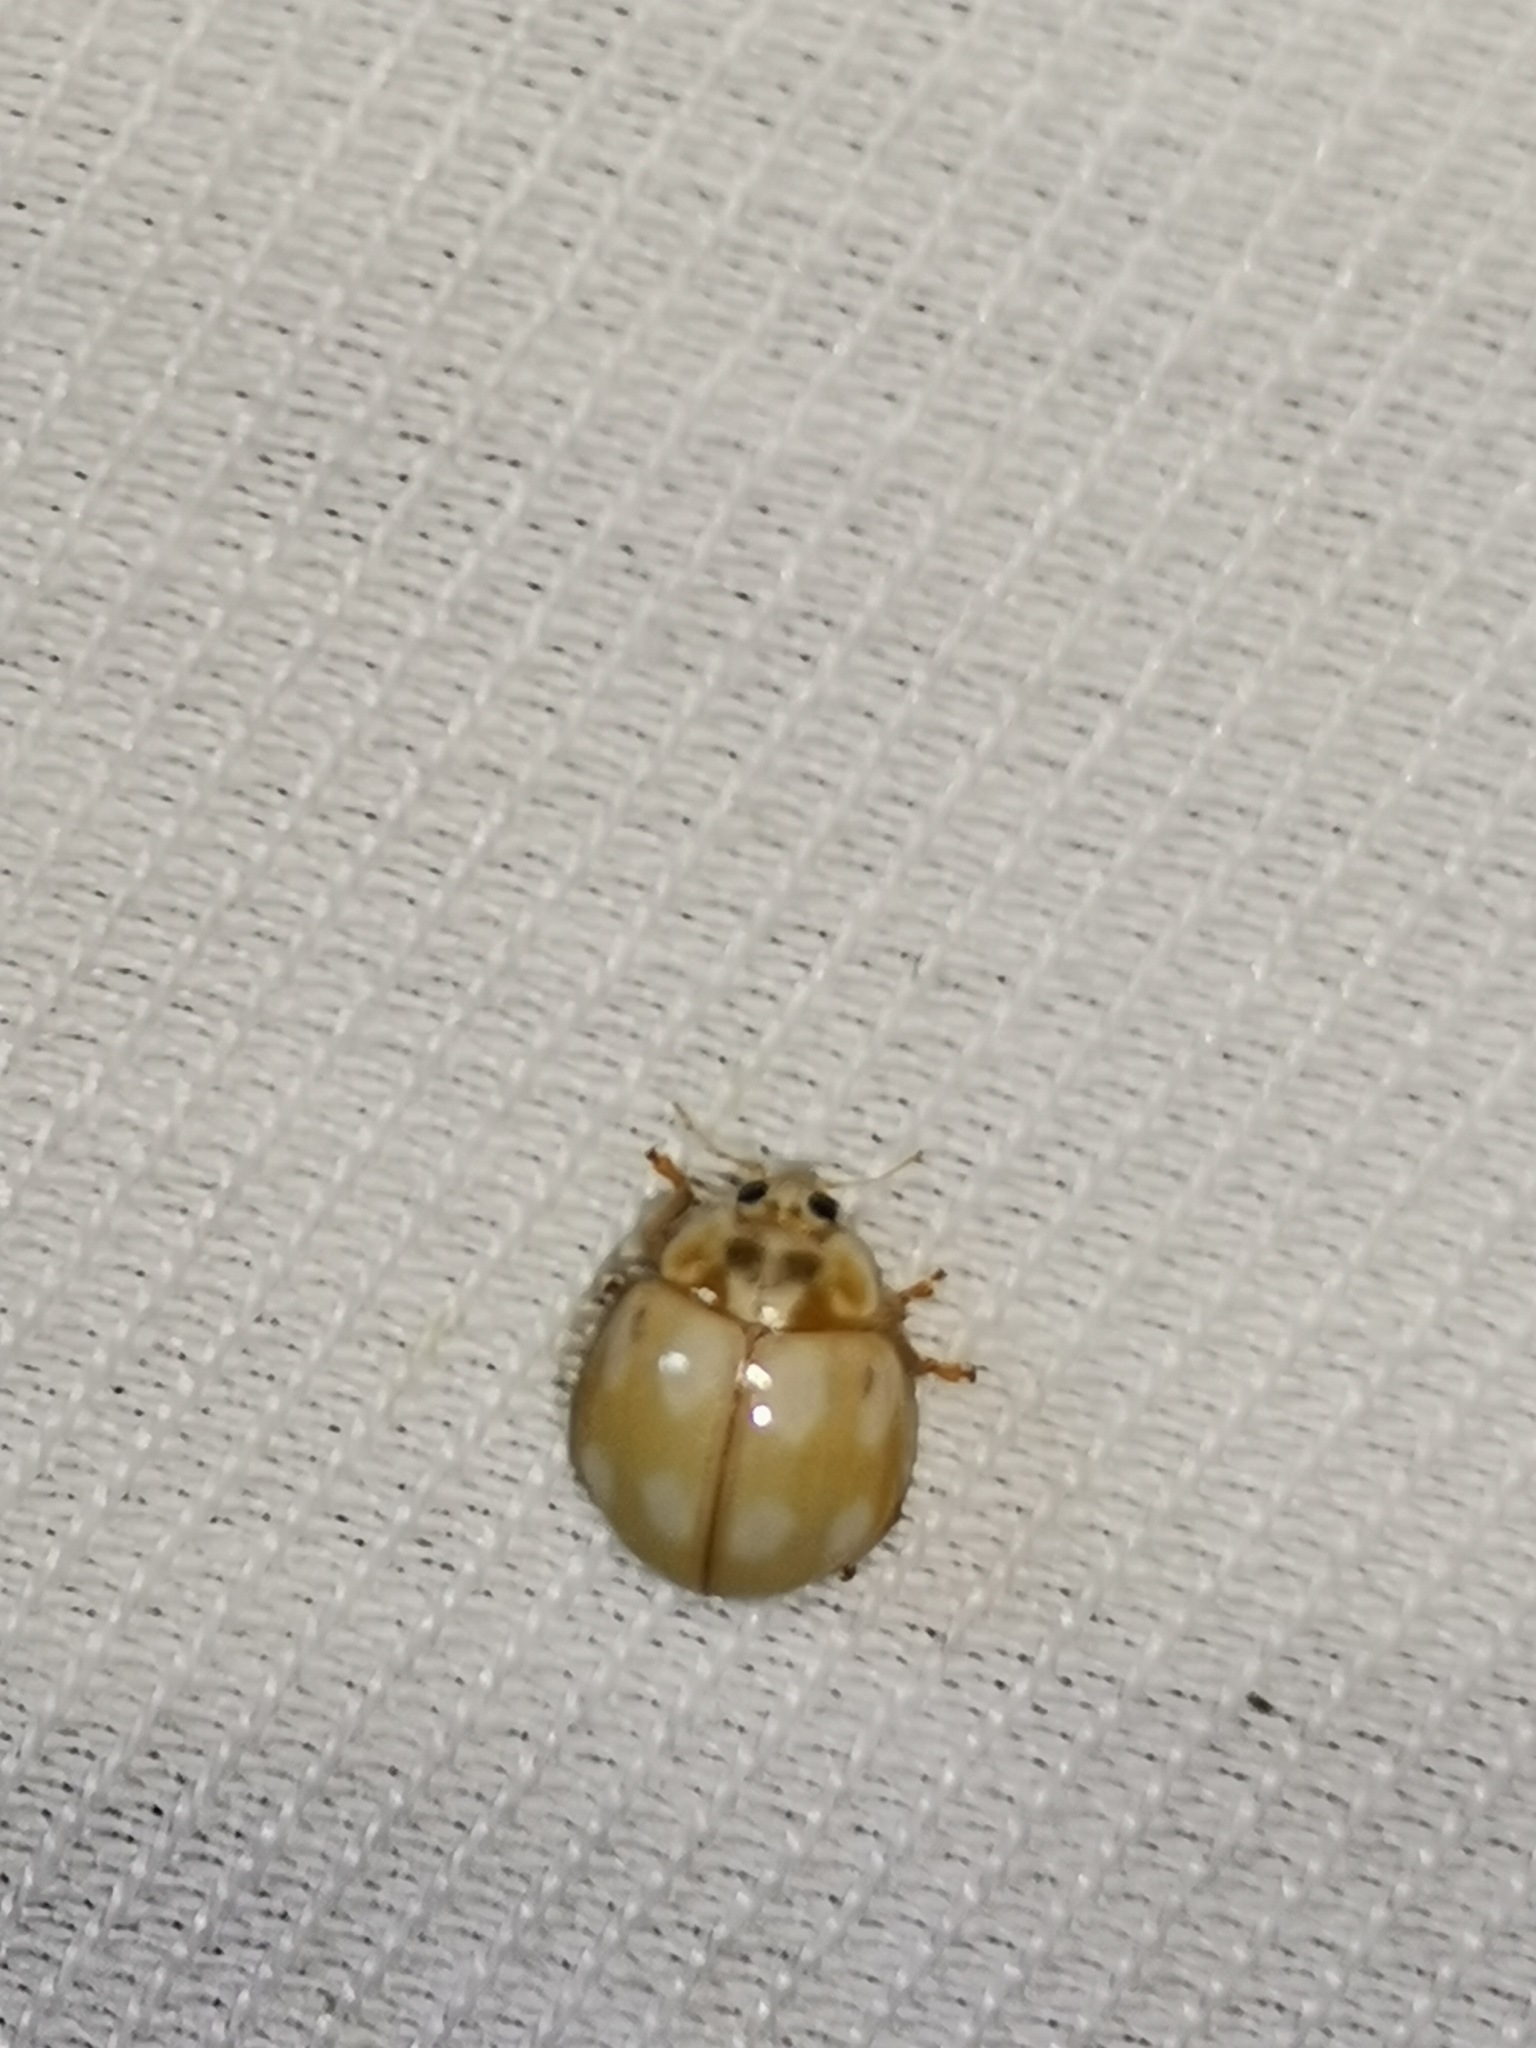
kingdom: Animalia
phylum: Arthropoda
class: Insecta
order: Coleoptera
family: Coccinellidae
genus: Calvia
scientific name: Calvia decemguttata
